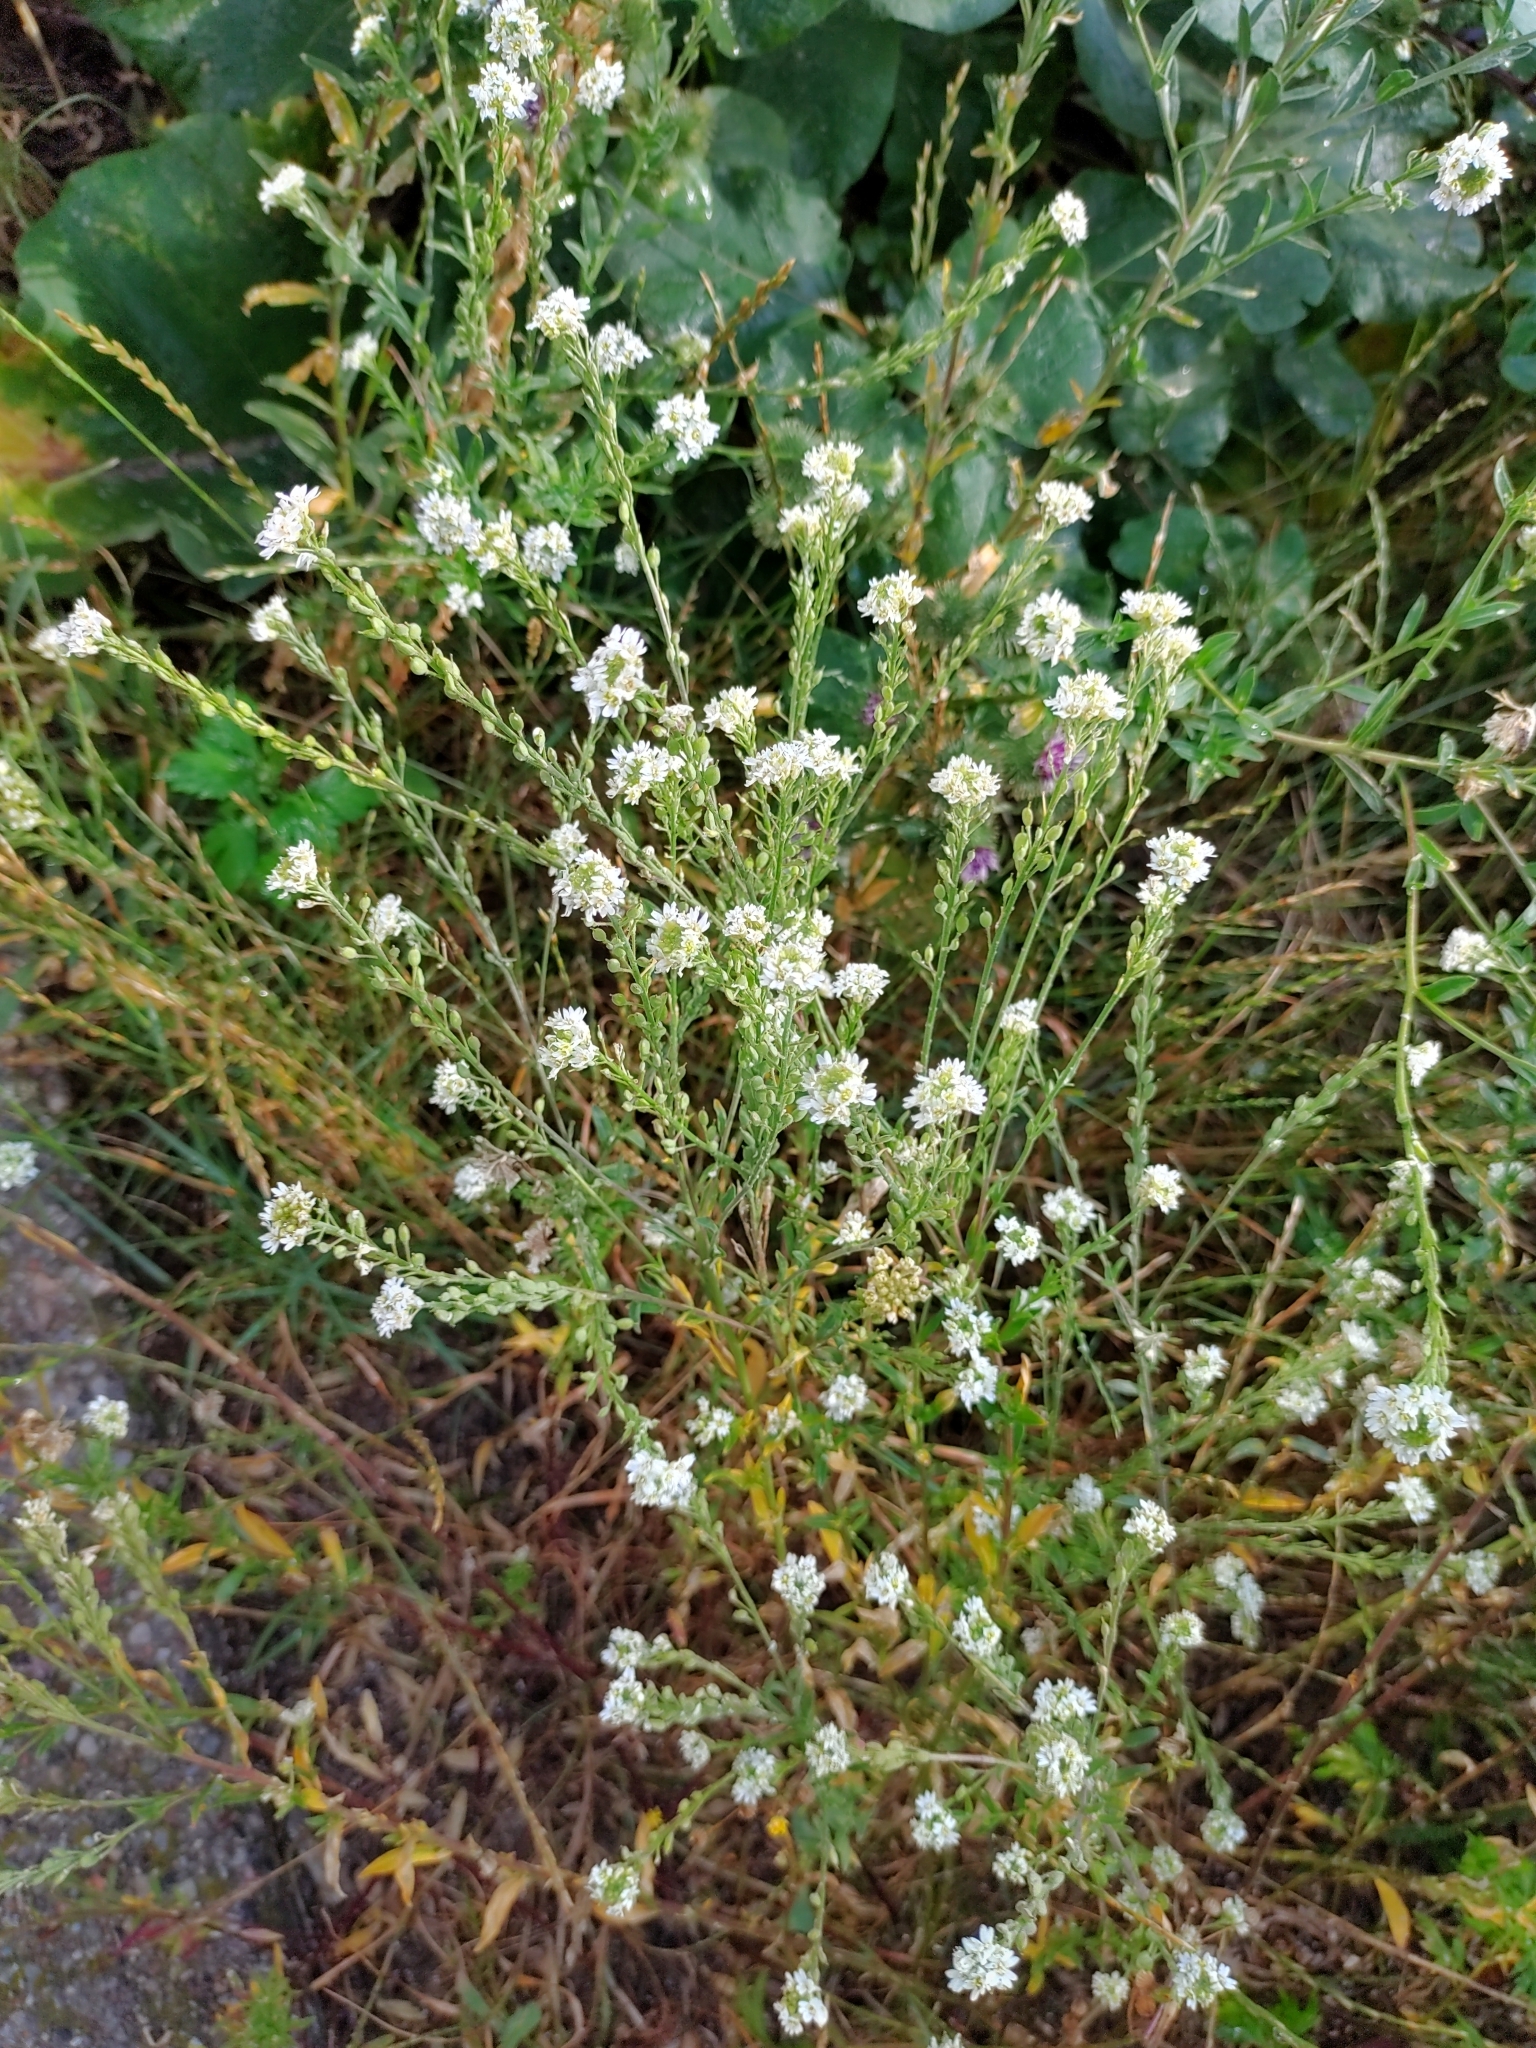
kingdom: Plantae
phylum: Tracheophyta
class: Magnoliopsida
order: Brassicales
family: Brassicaceae
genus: Berteroa
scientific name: Berteroa incana
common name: Hoary alison
